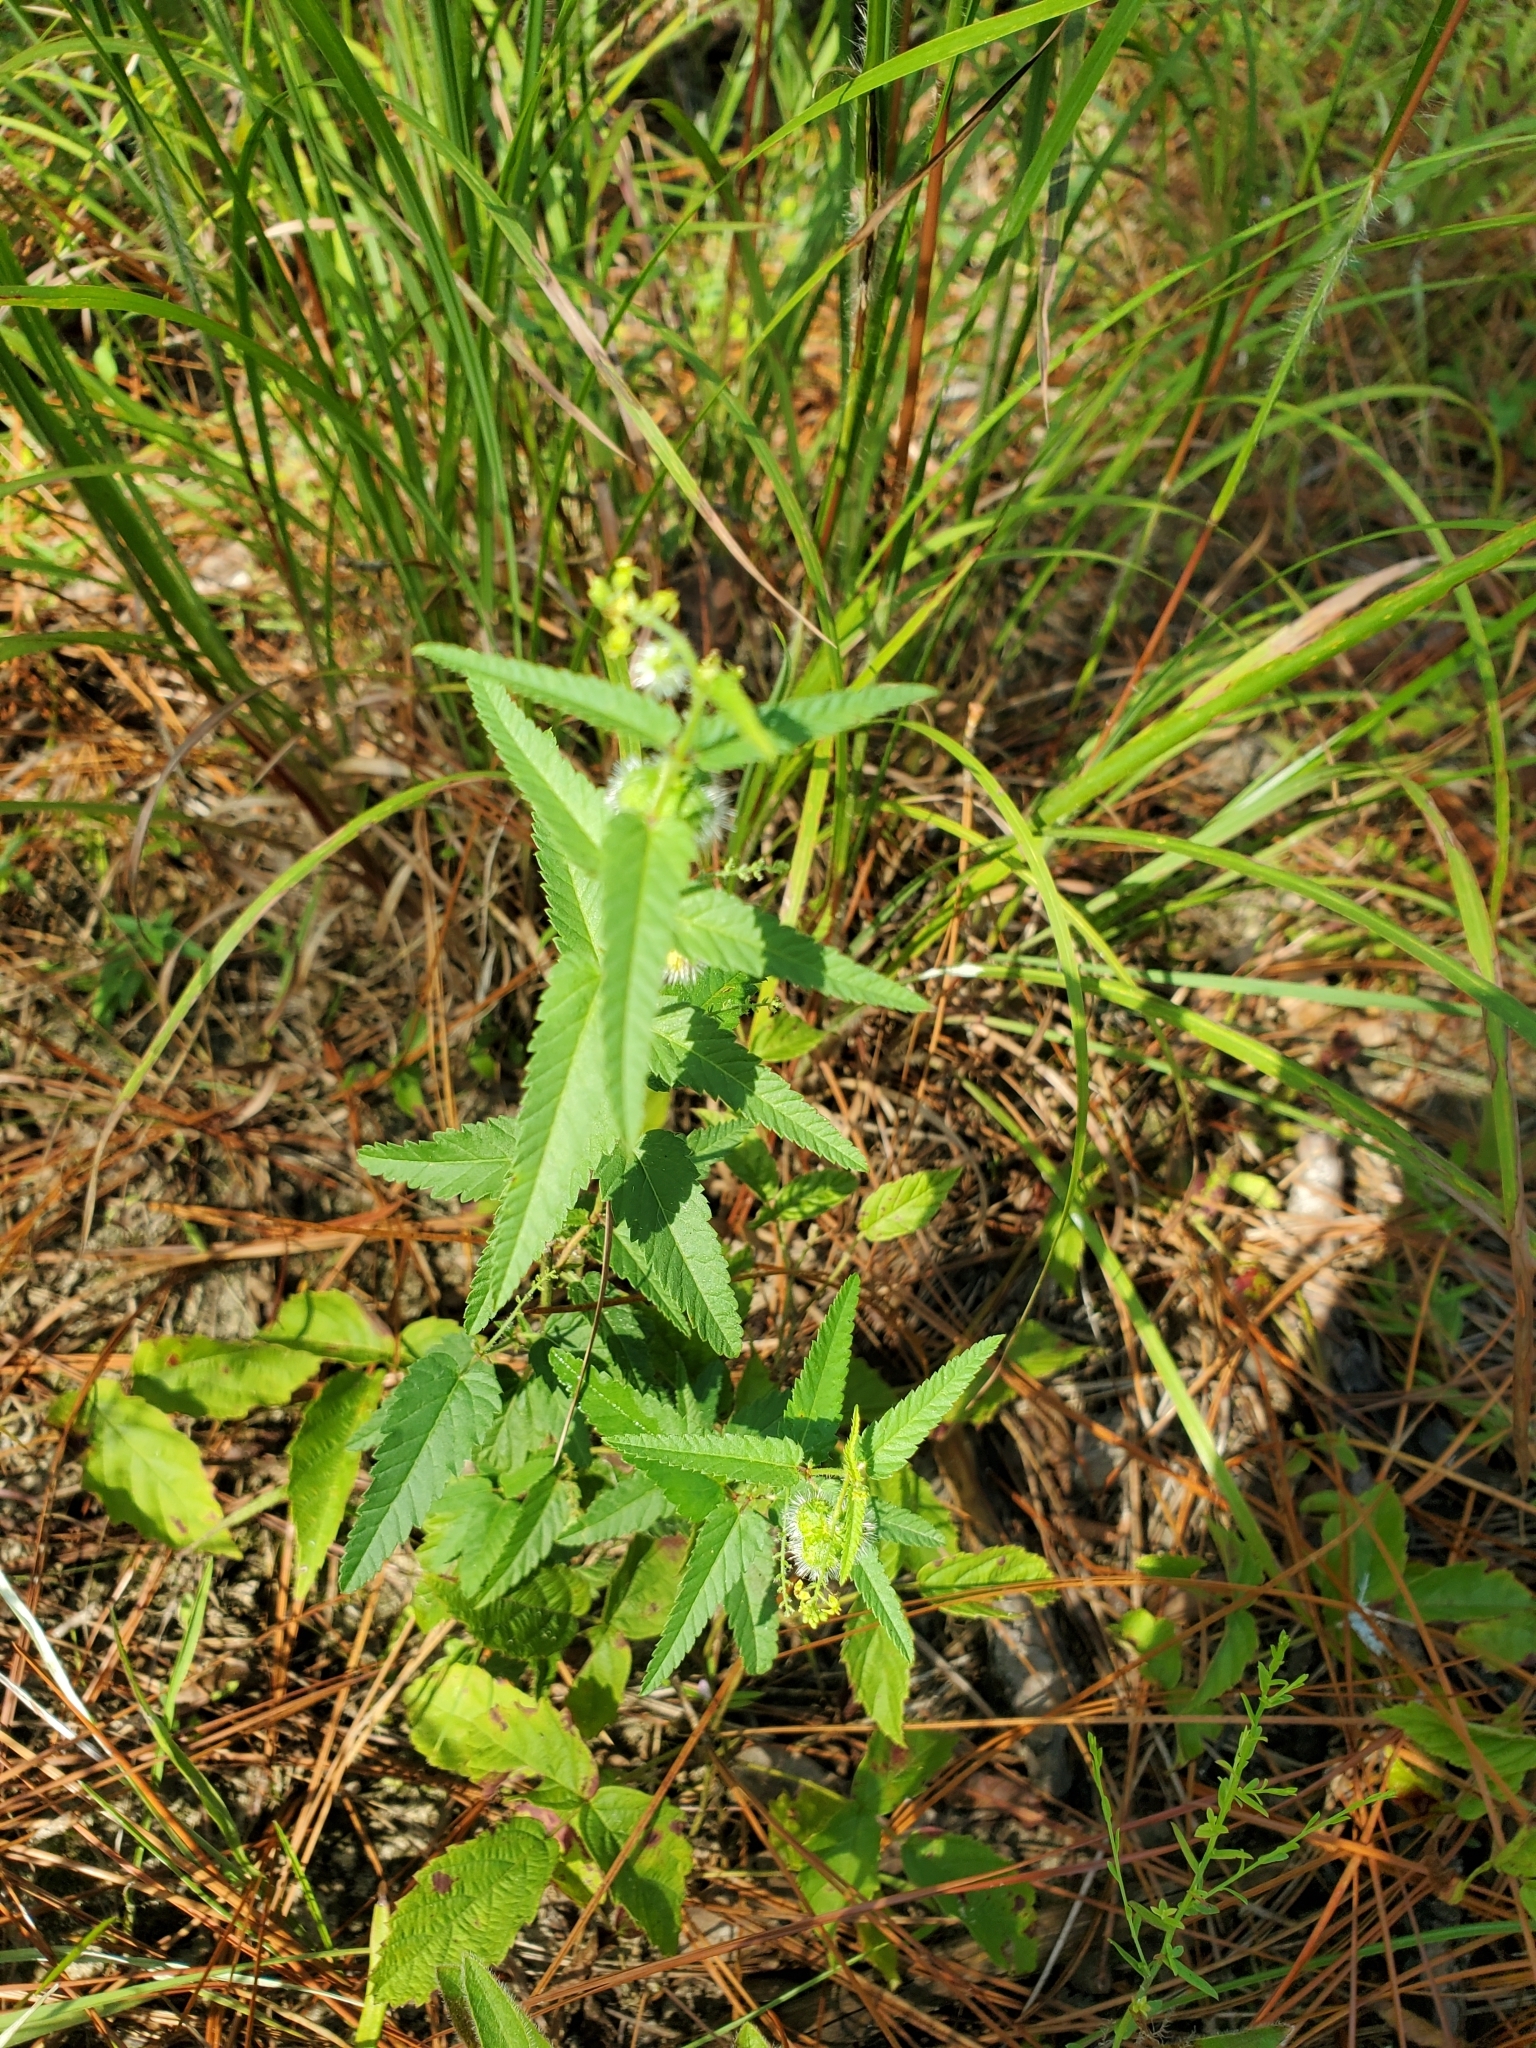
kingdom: Plantae
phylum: Tracheophyta
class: Magnoliopsida
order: Malpighiales
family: Euphorbiaceae
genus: Tragia
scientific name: Tragia urticifolia
